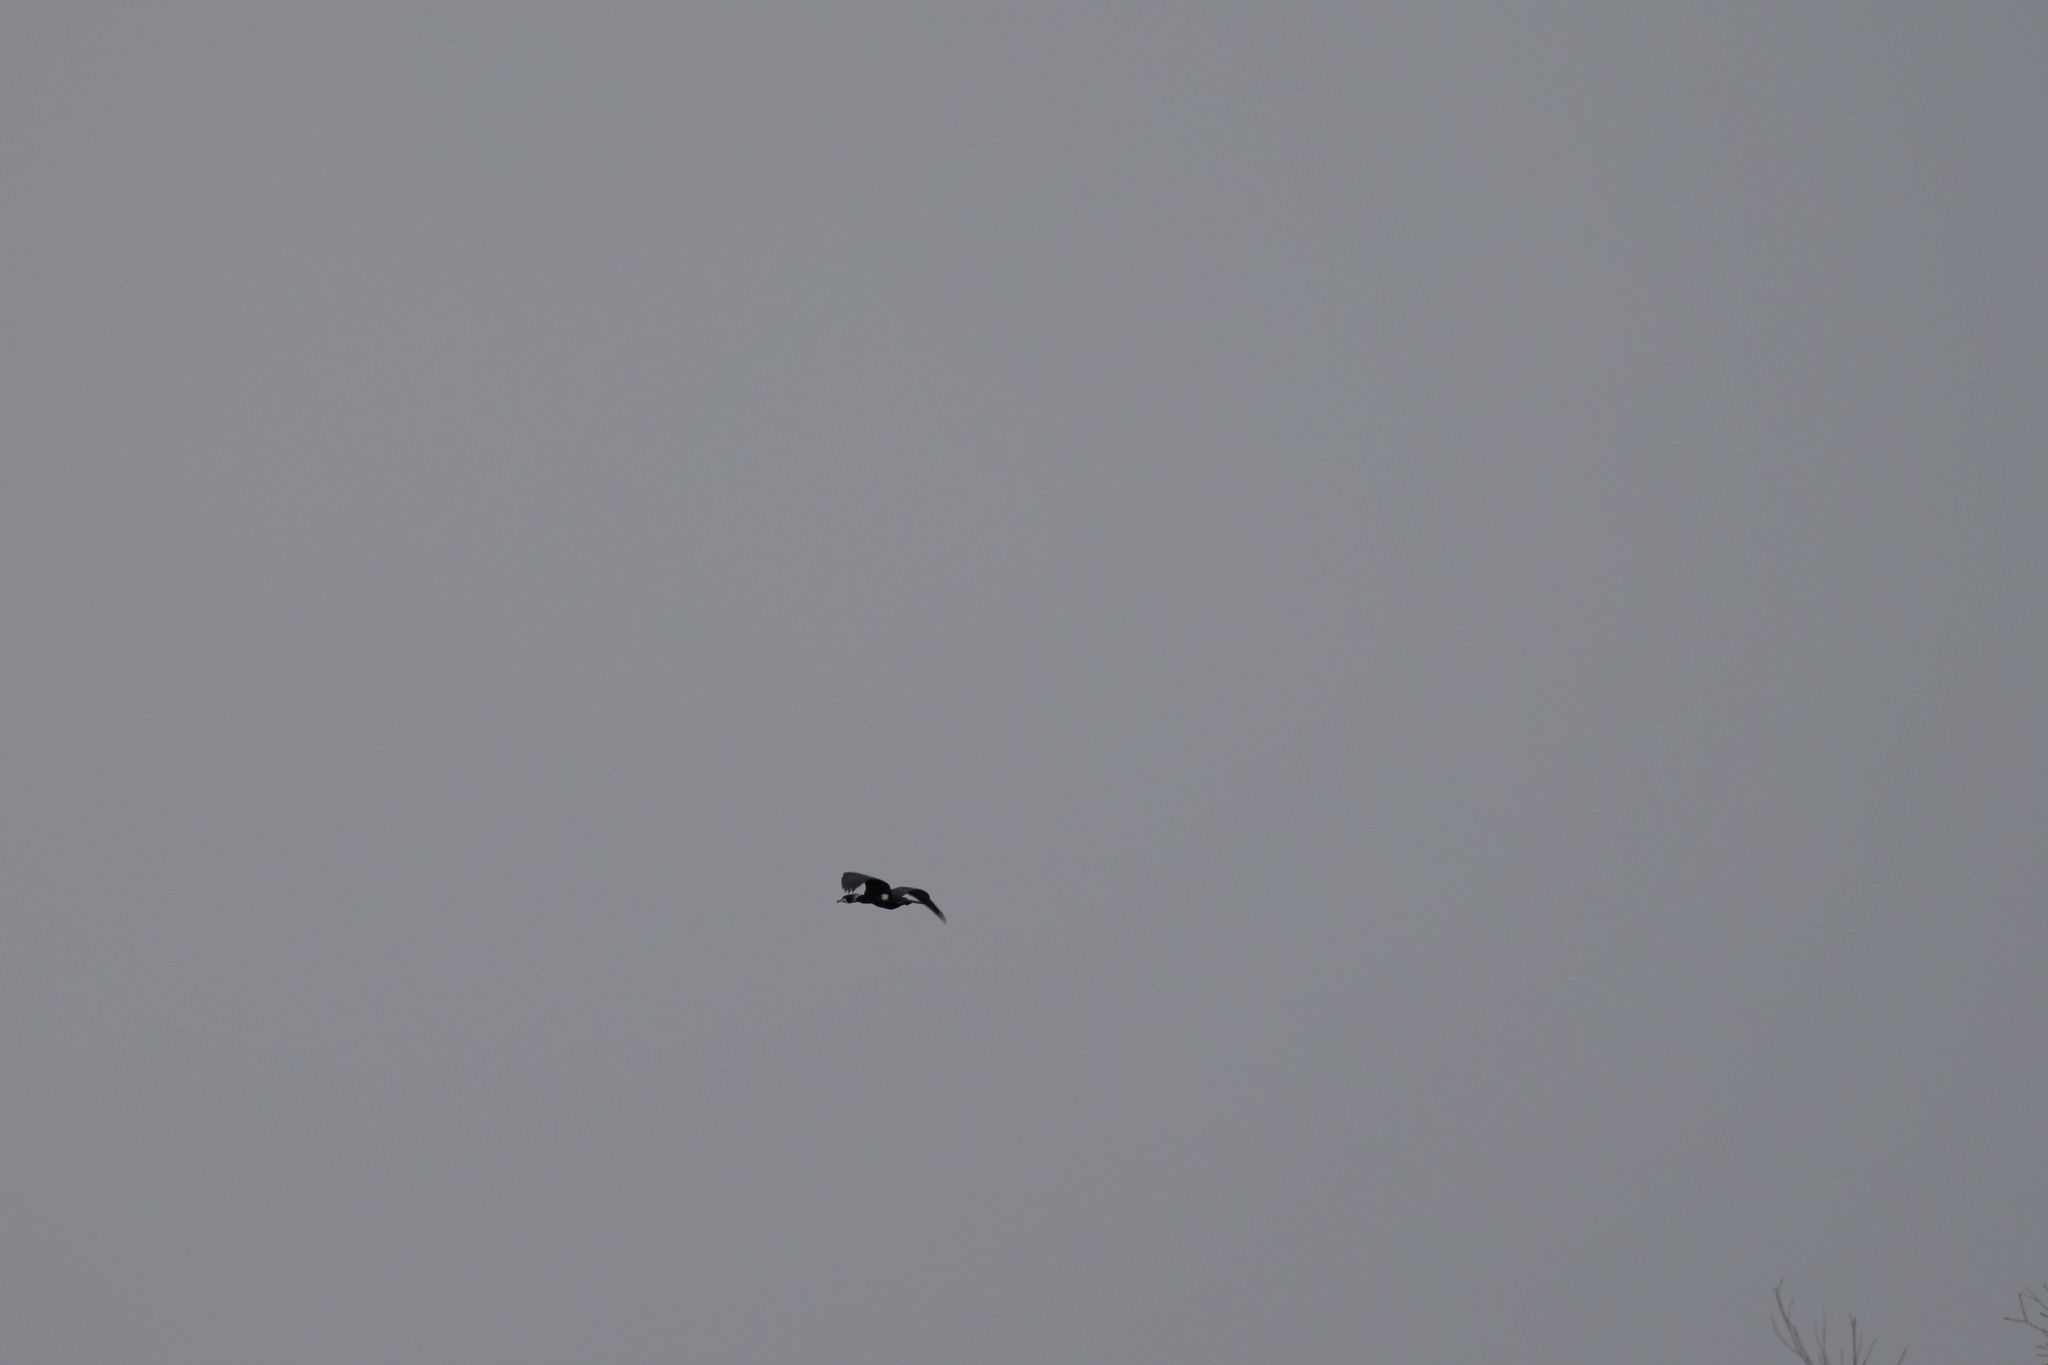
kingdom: Animalia
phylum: Chordata
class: Aves
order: Suliformes
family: Phalacrocoracidae
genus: Phalacrocorax
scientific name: Phalacrocorax carbo
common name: Great cormorant
